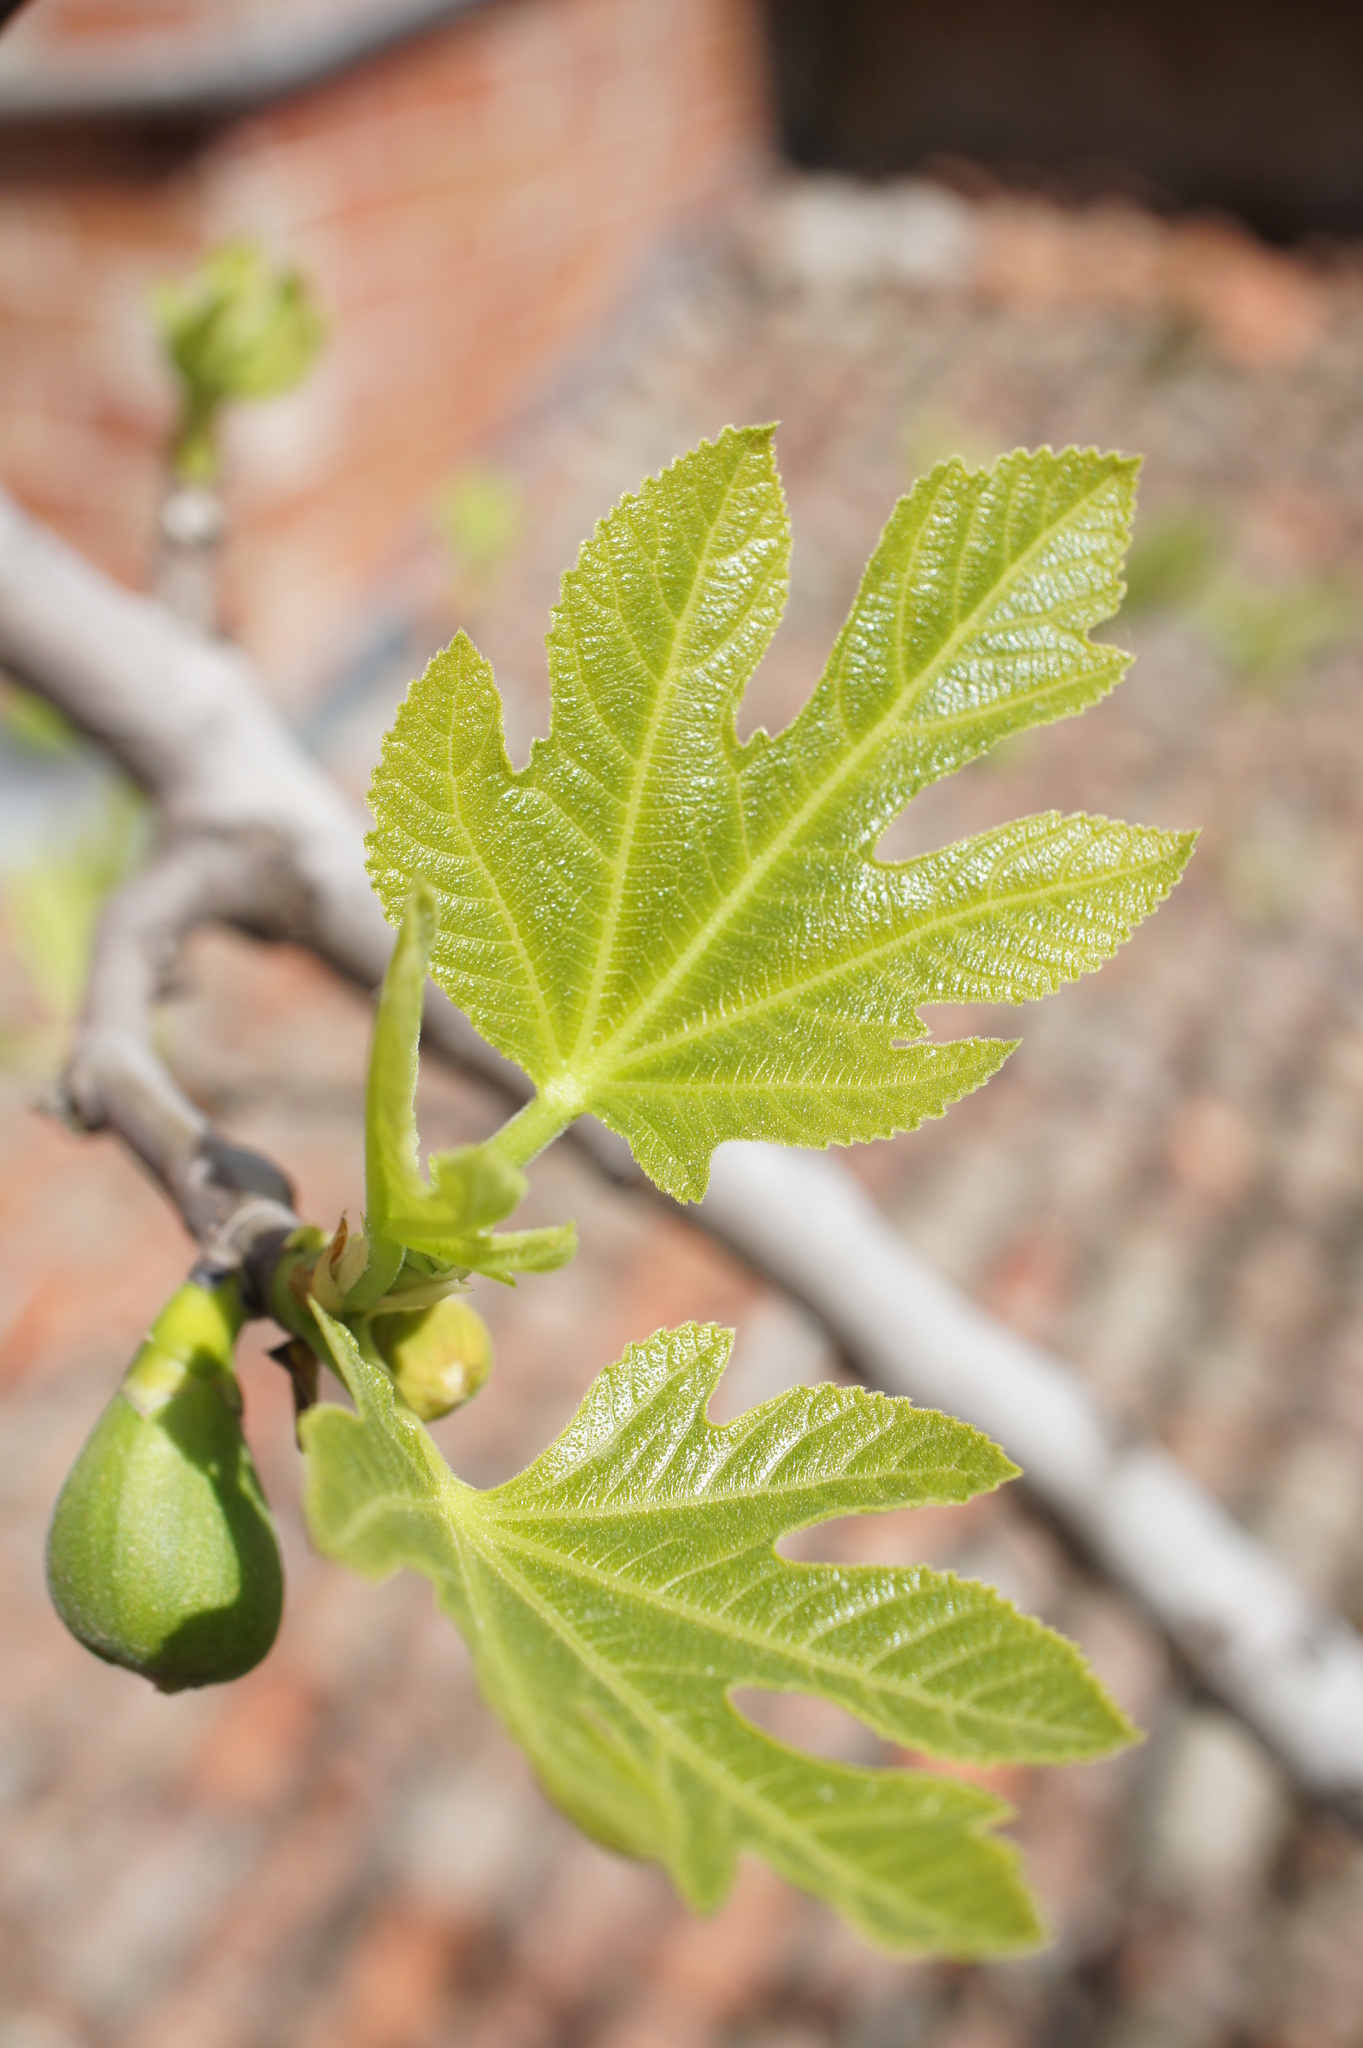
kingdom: Plantae
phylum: Tracheophyta
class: Magnoliopsida
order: Rosales
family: Moraceae
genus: Ficus
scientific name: Ficus carica
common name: Fig
